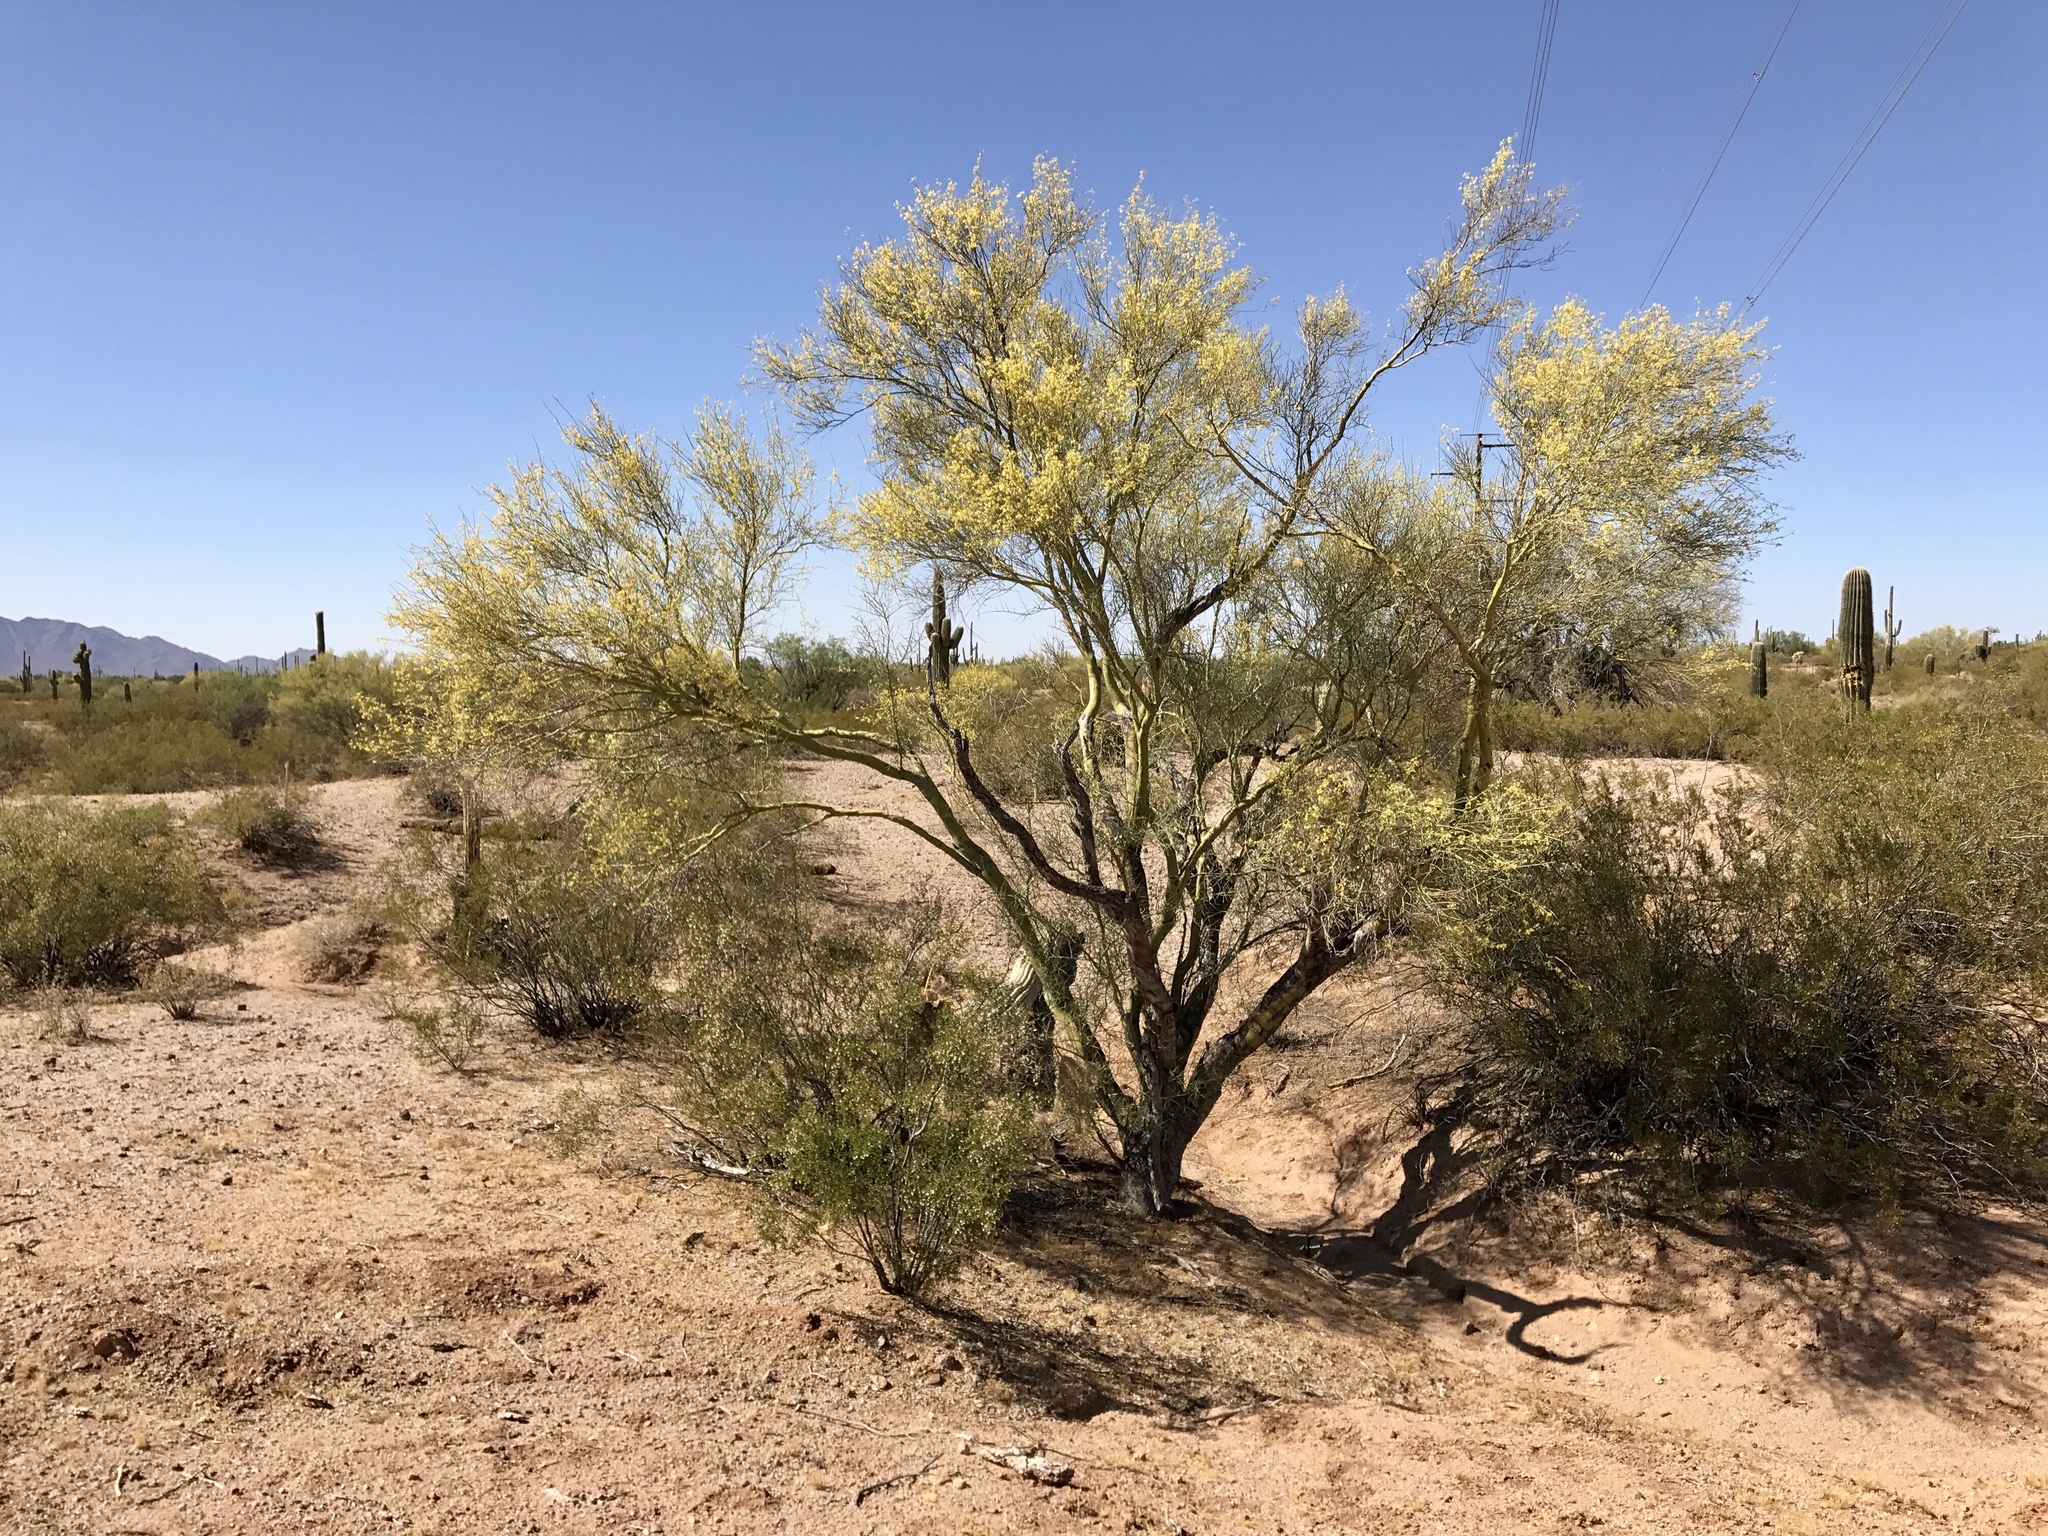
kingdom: Plantae
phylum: Tracheophyta
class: Magnoliopsida
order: Fabales
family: Fabaceae
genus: Parkinsonia
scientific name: Parkinsonia microphylla
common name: Yellow paloverde
